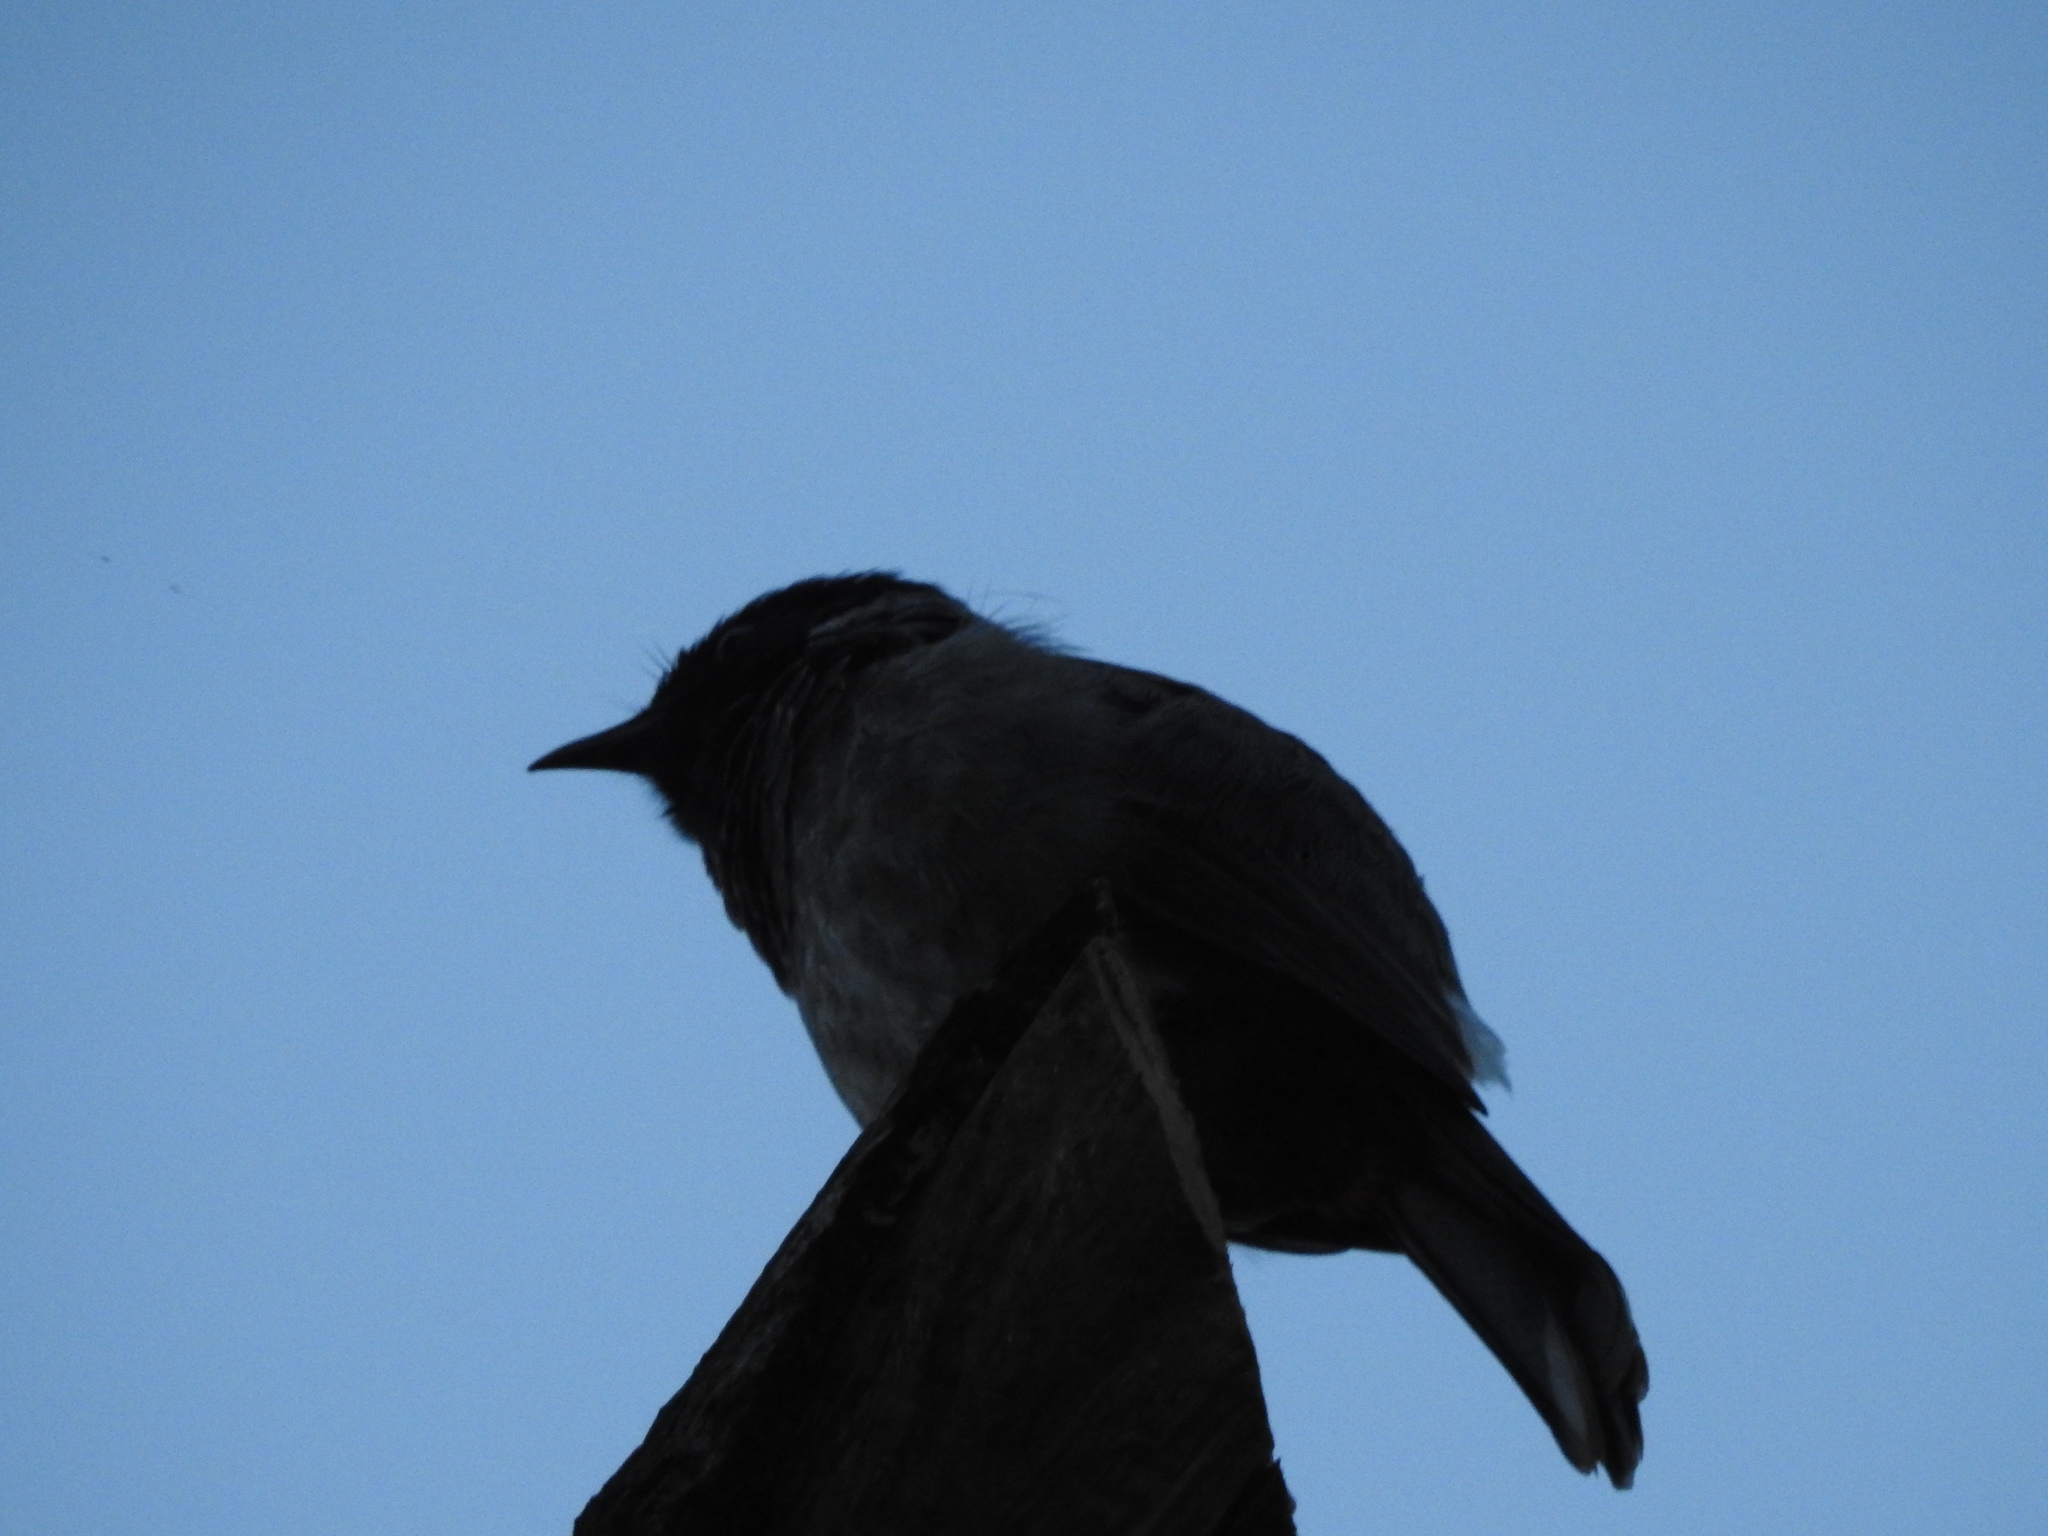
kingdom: Animalia
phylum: Chordata
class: Aves
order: Passeriformes
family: Pycnonotidae
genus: Pycnonotus
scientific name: Pycnonotus cafer
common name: Red-vented bulbul
